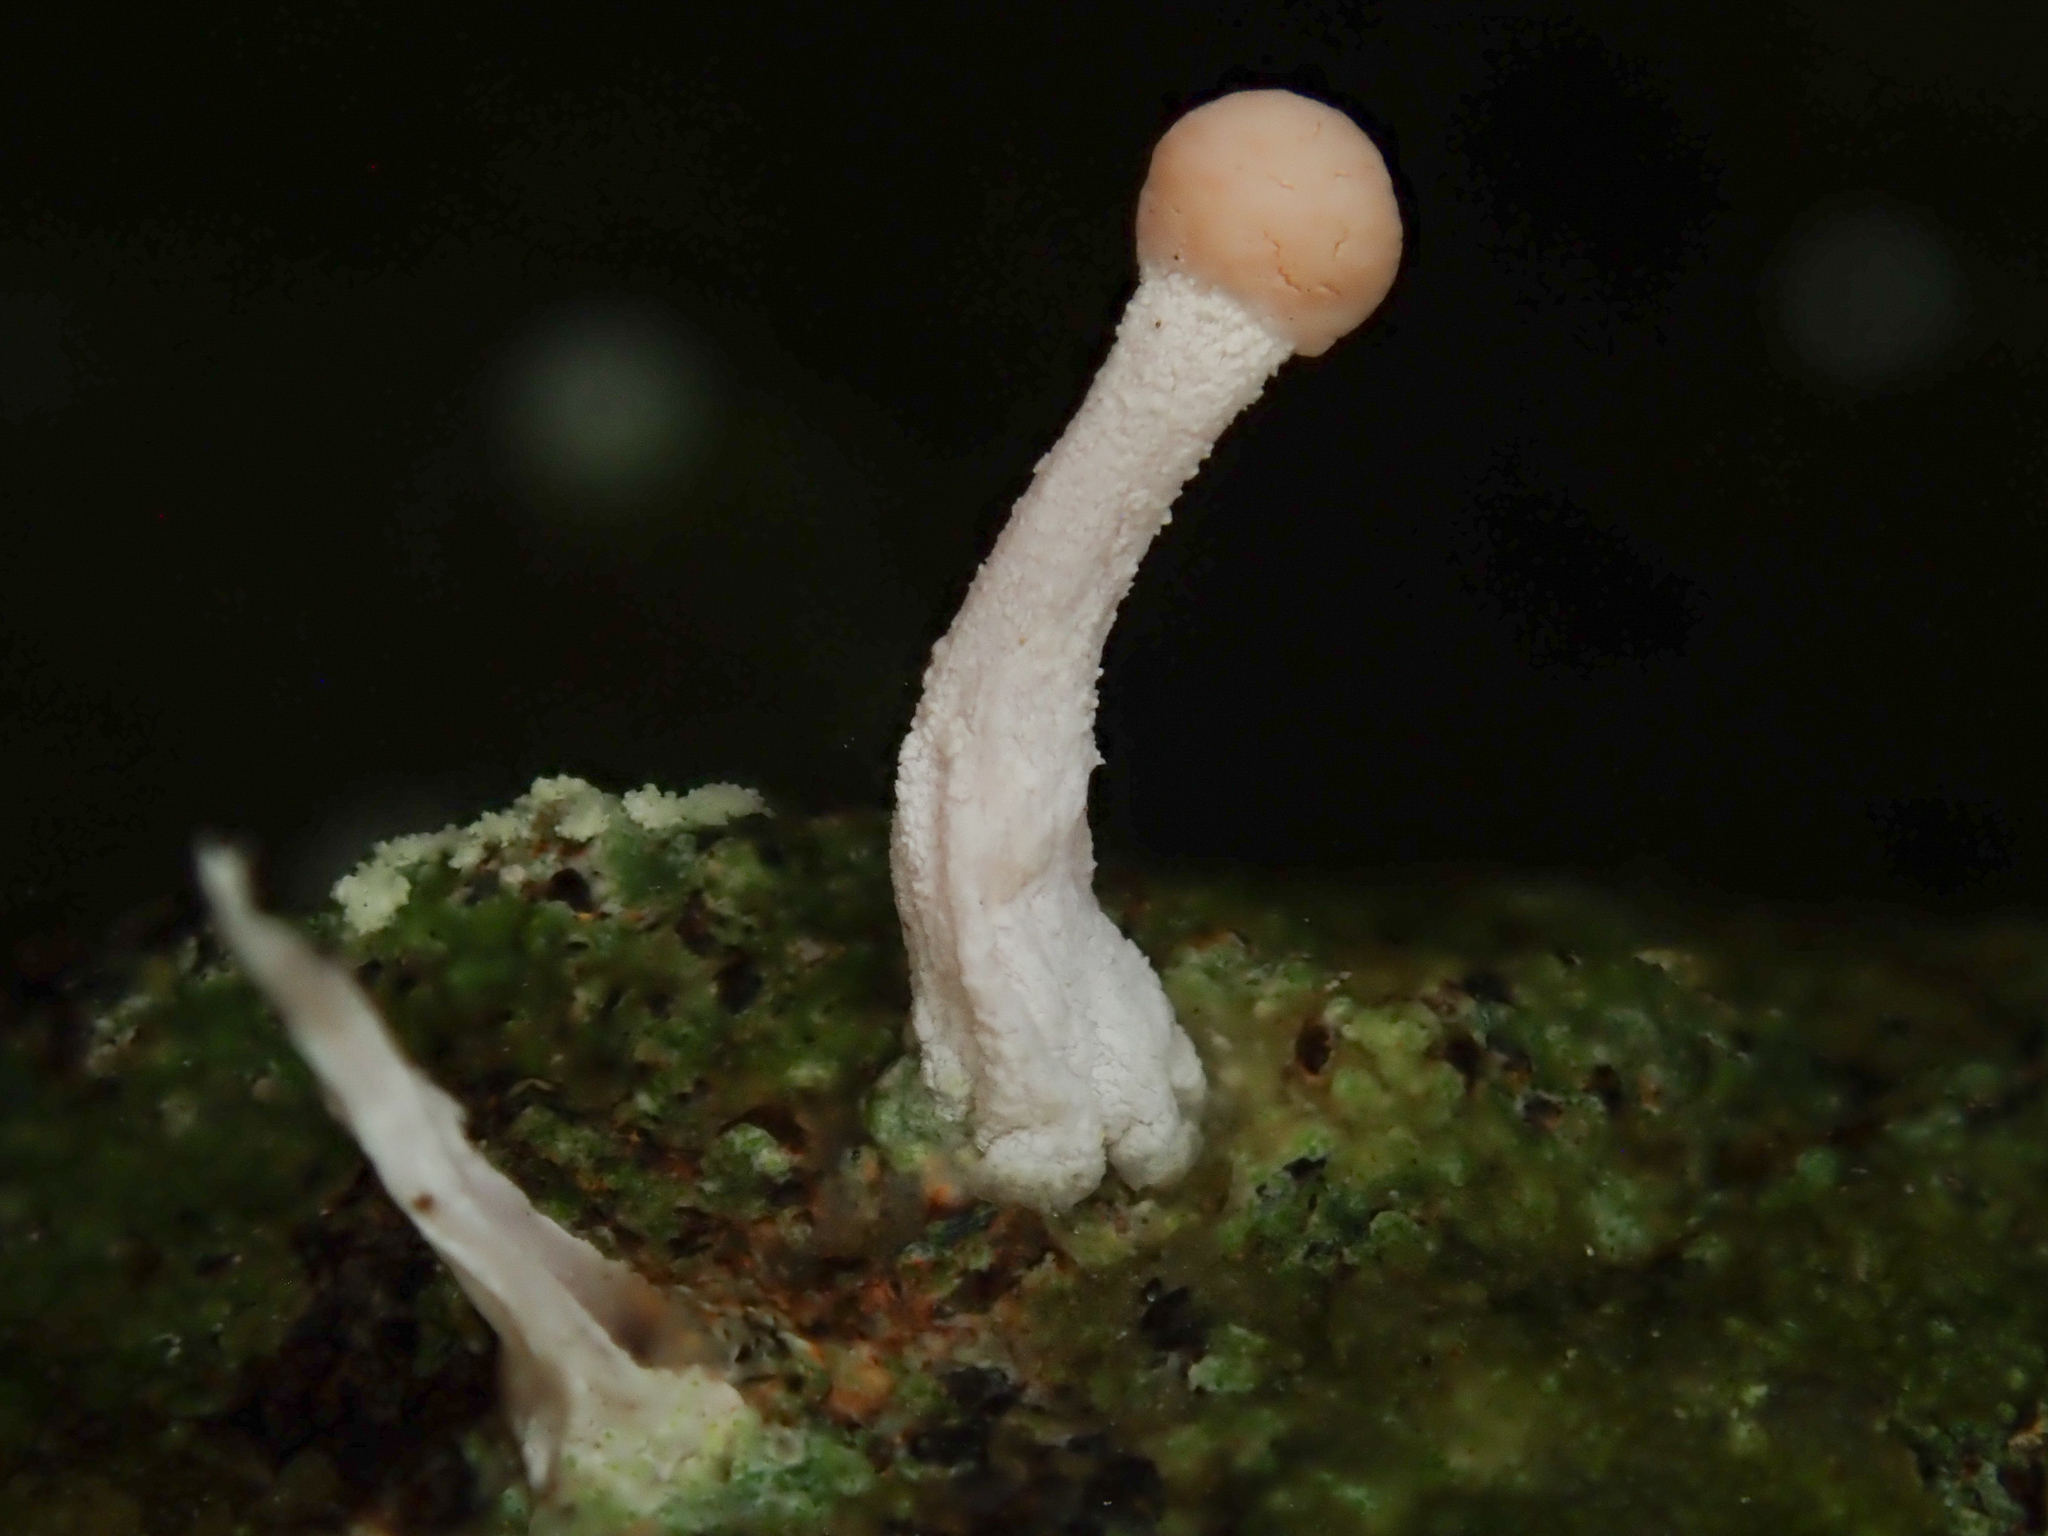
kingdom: Fungi
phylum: Ascomycota
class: Lecanoromycetes
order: Pertusariales
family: Icmadophilaceae
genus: Dibaeis
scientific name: Dibaeis arcuata
